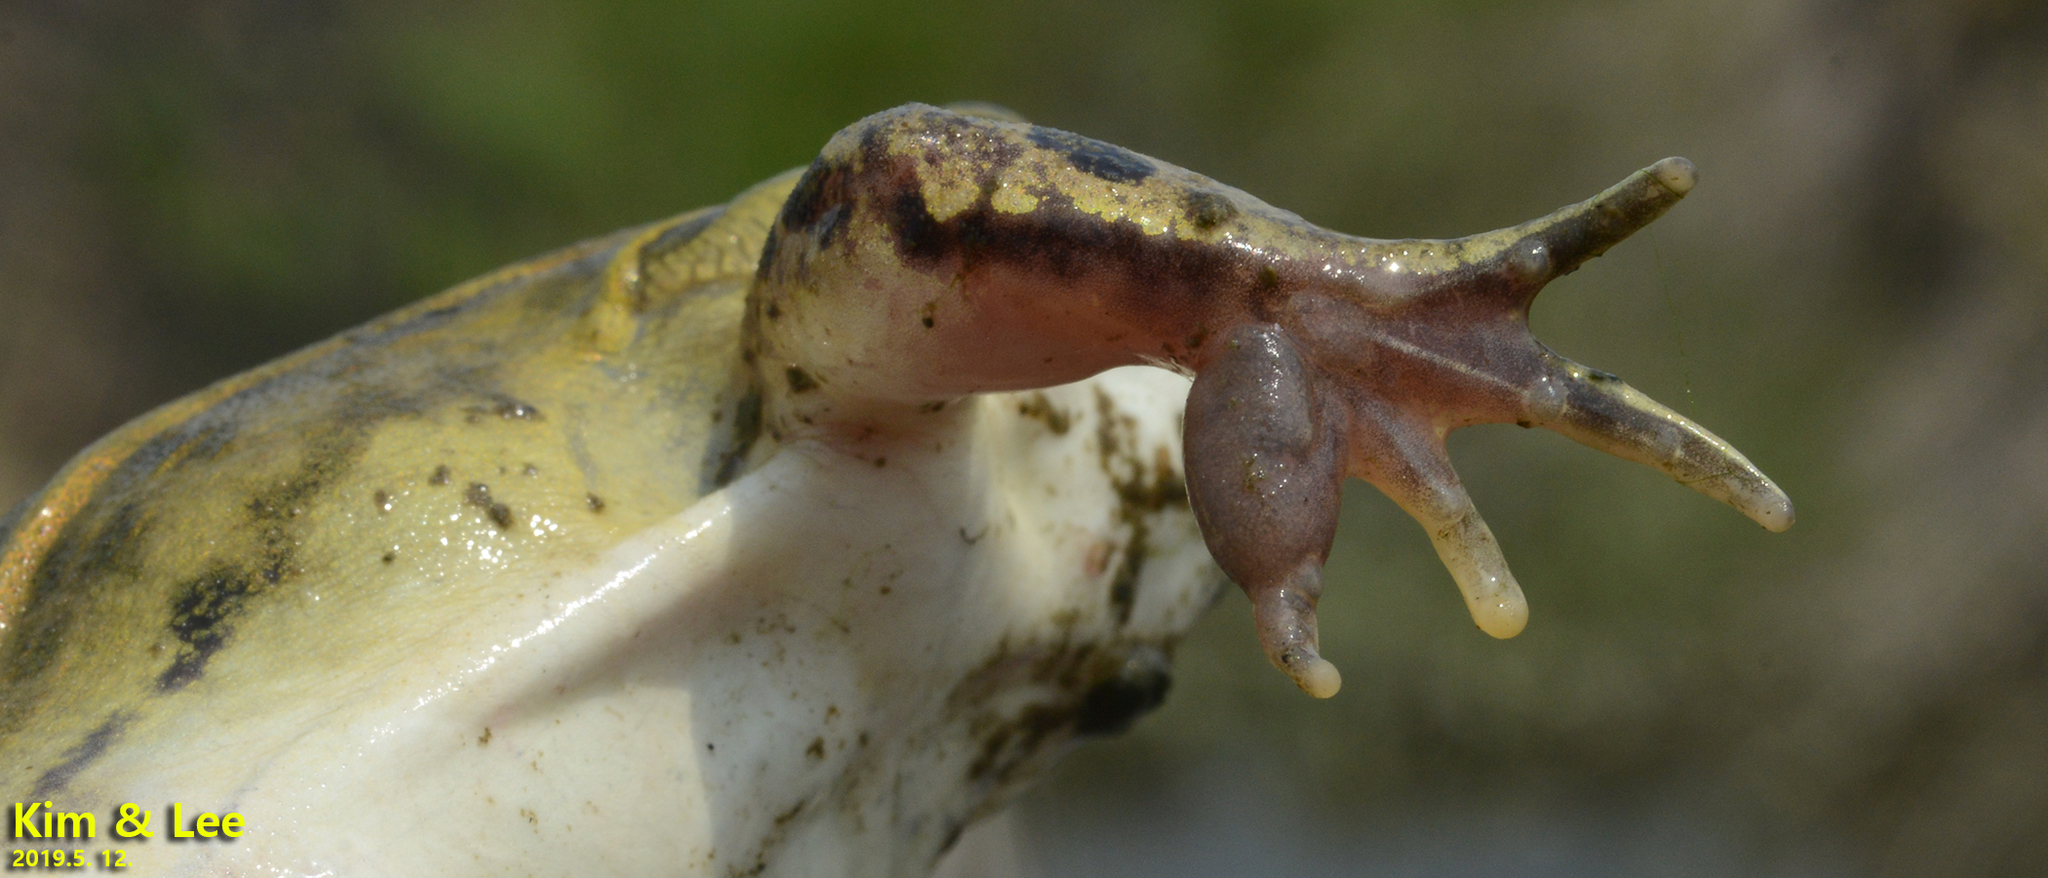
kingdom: Animalia
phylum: Chordata
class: Amphibia
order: Anura
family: Ranidae
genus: Pelophylax
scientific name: Pelophylax nigromaculatus
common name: Black-spotted pond frog
